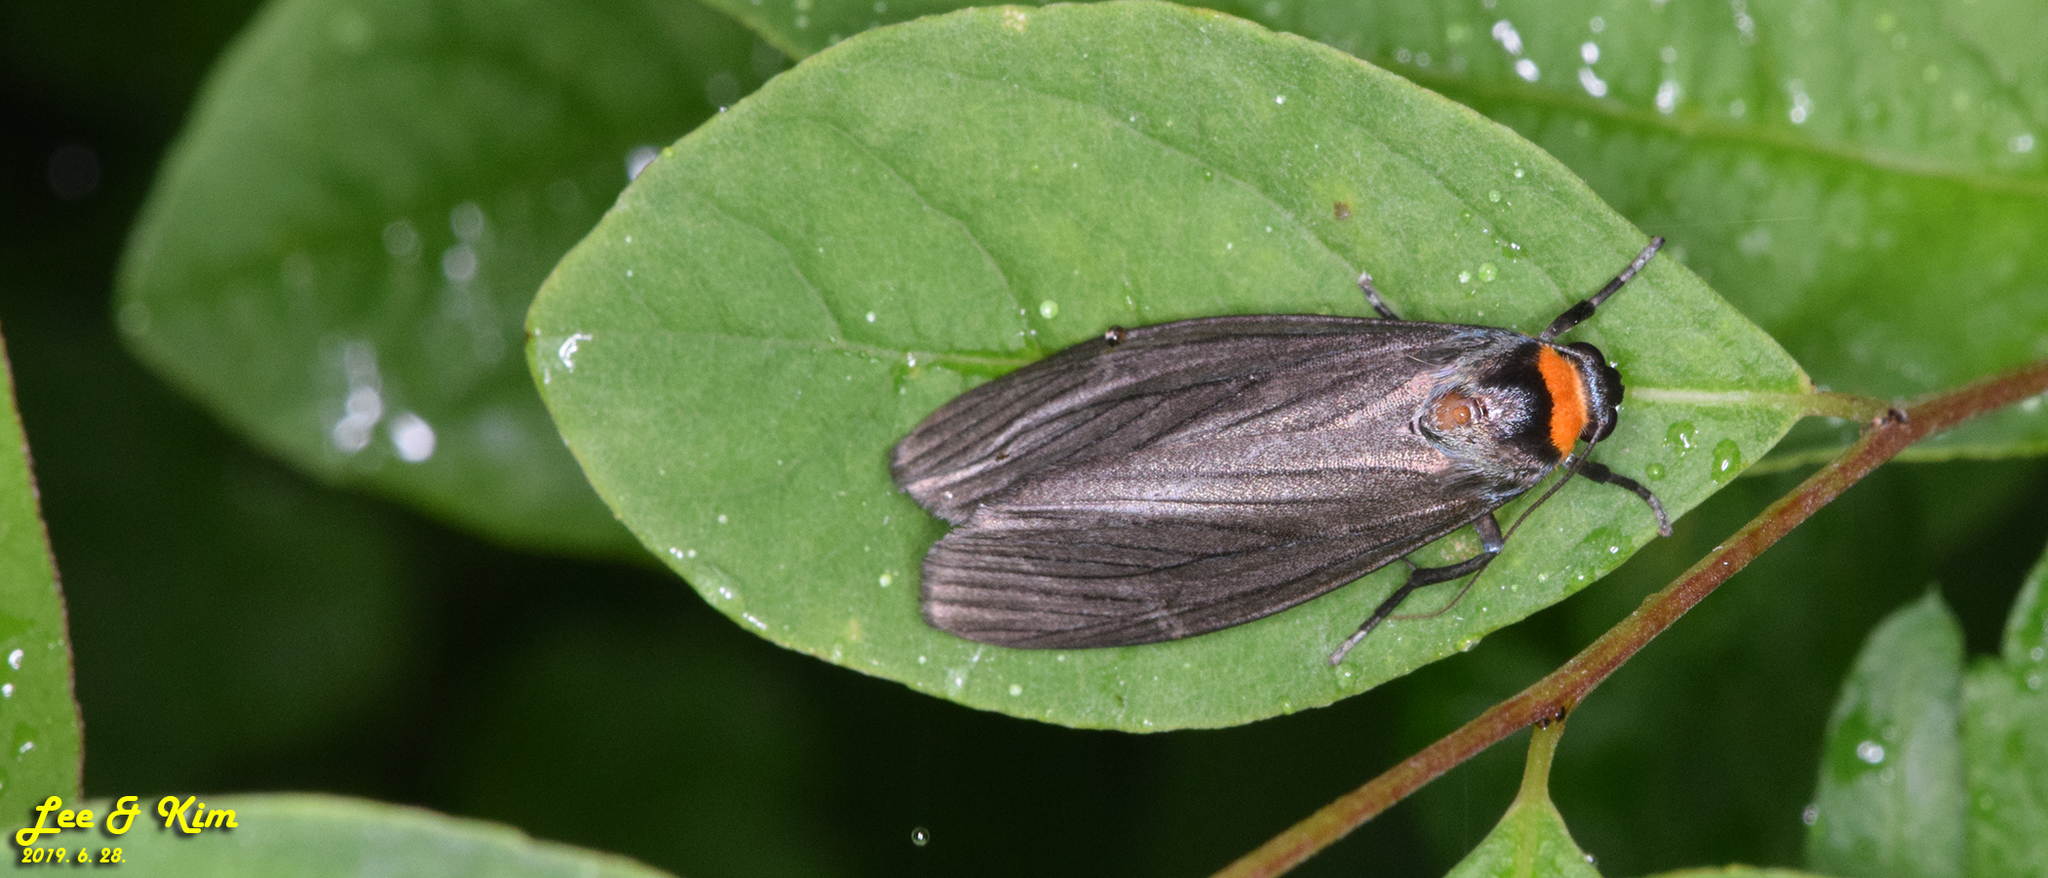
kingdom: Animalia
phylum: Arthropoda
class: Insecta
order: Lepidoptera
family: Erebidae
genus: Macrobrochis
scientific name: Macrobrochis staudingeri
